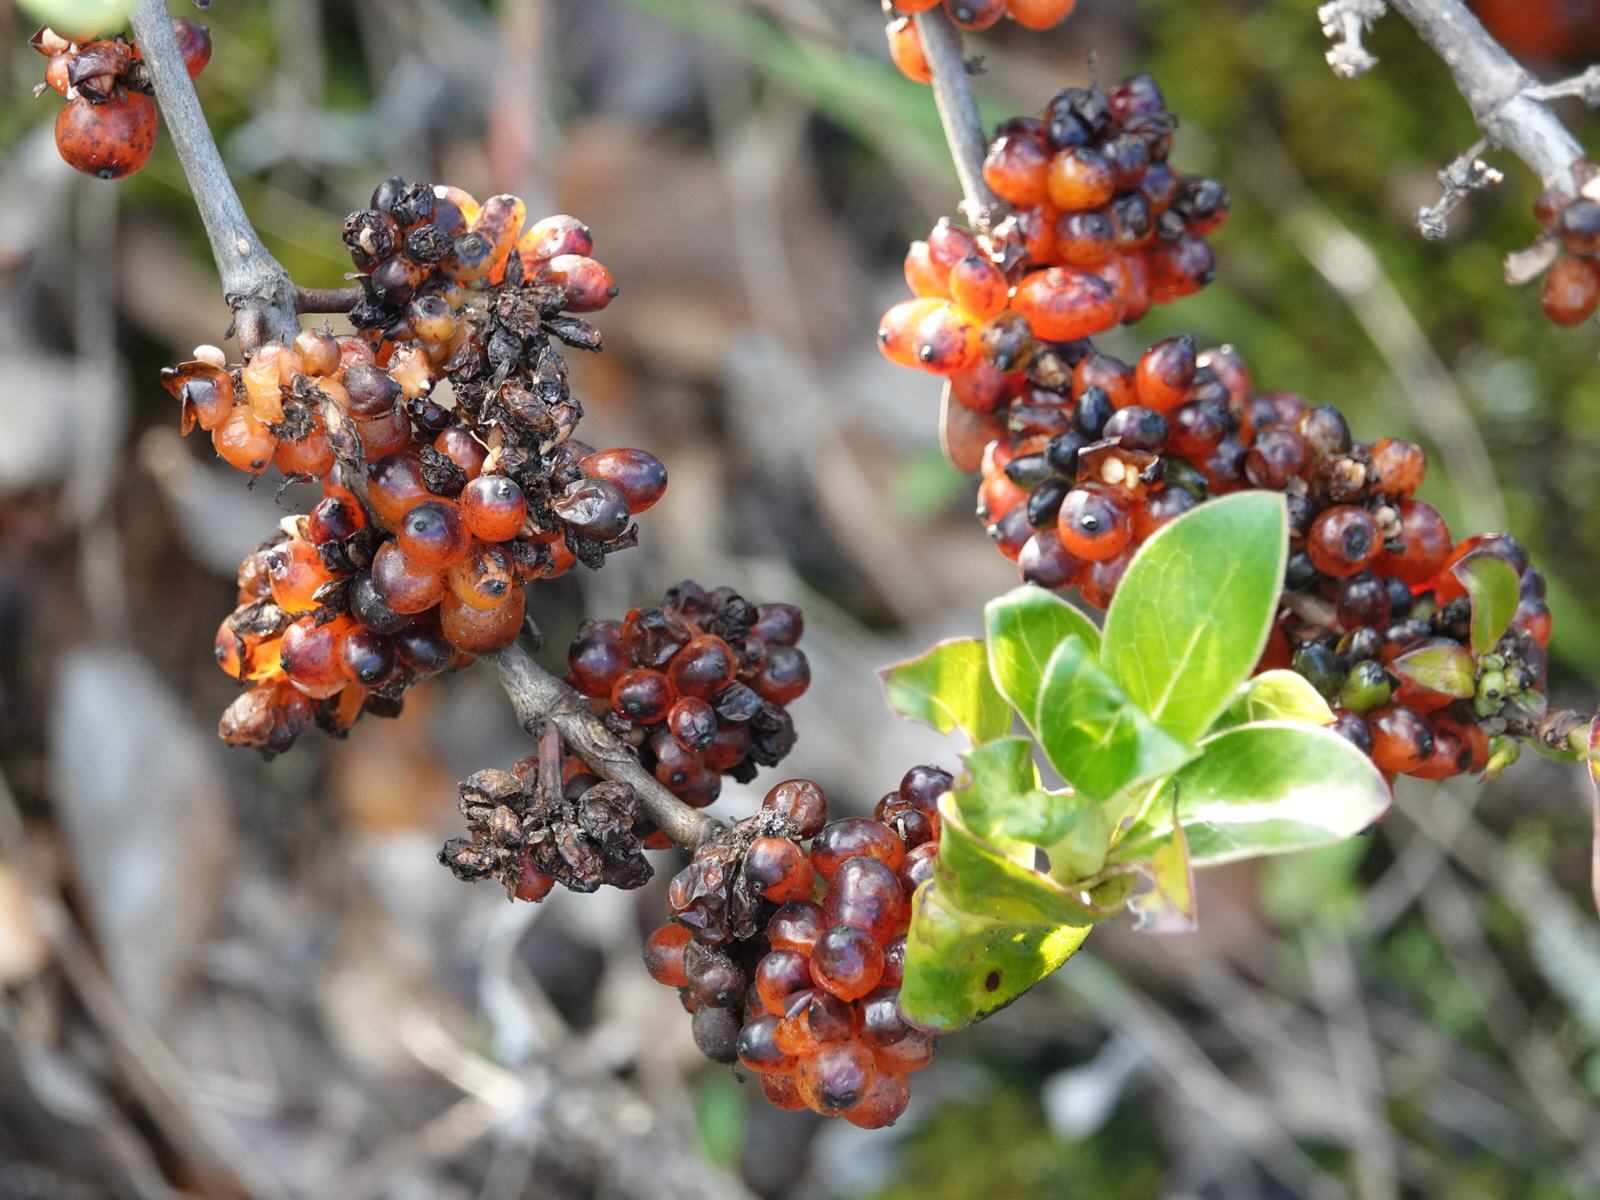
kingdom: Plantae
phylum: Tracheophyta
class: Magnoliopsida
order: Gentianales
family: Rubiaceae
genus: Coprosma
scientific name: Coprosma robusta
